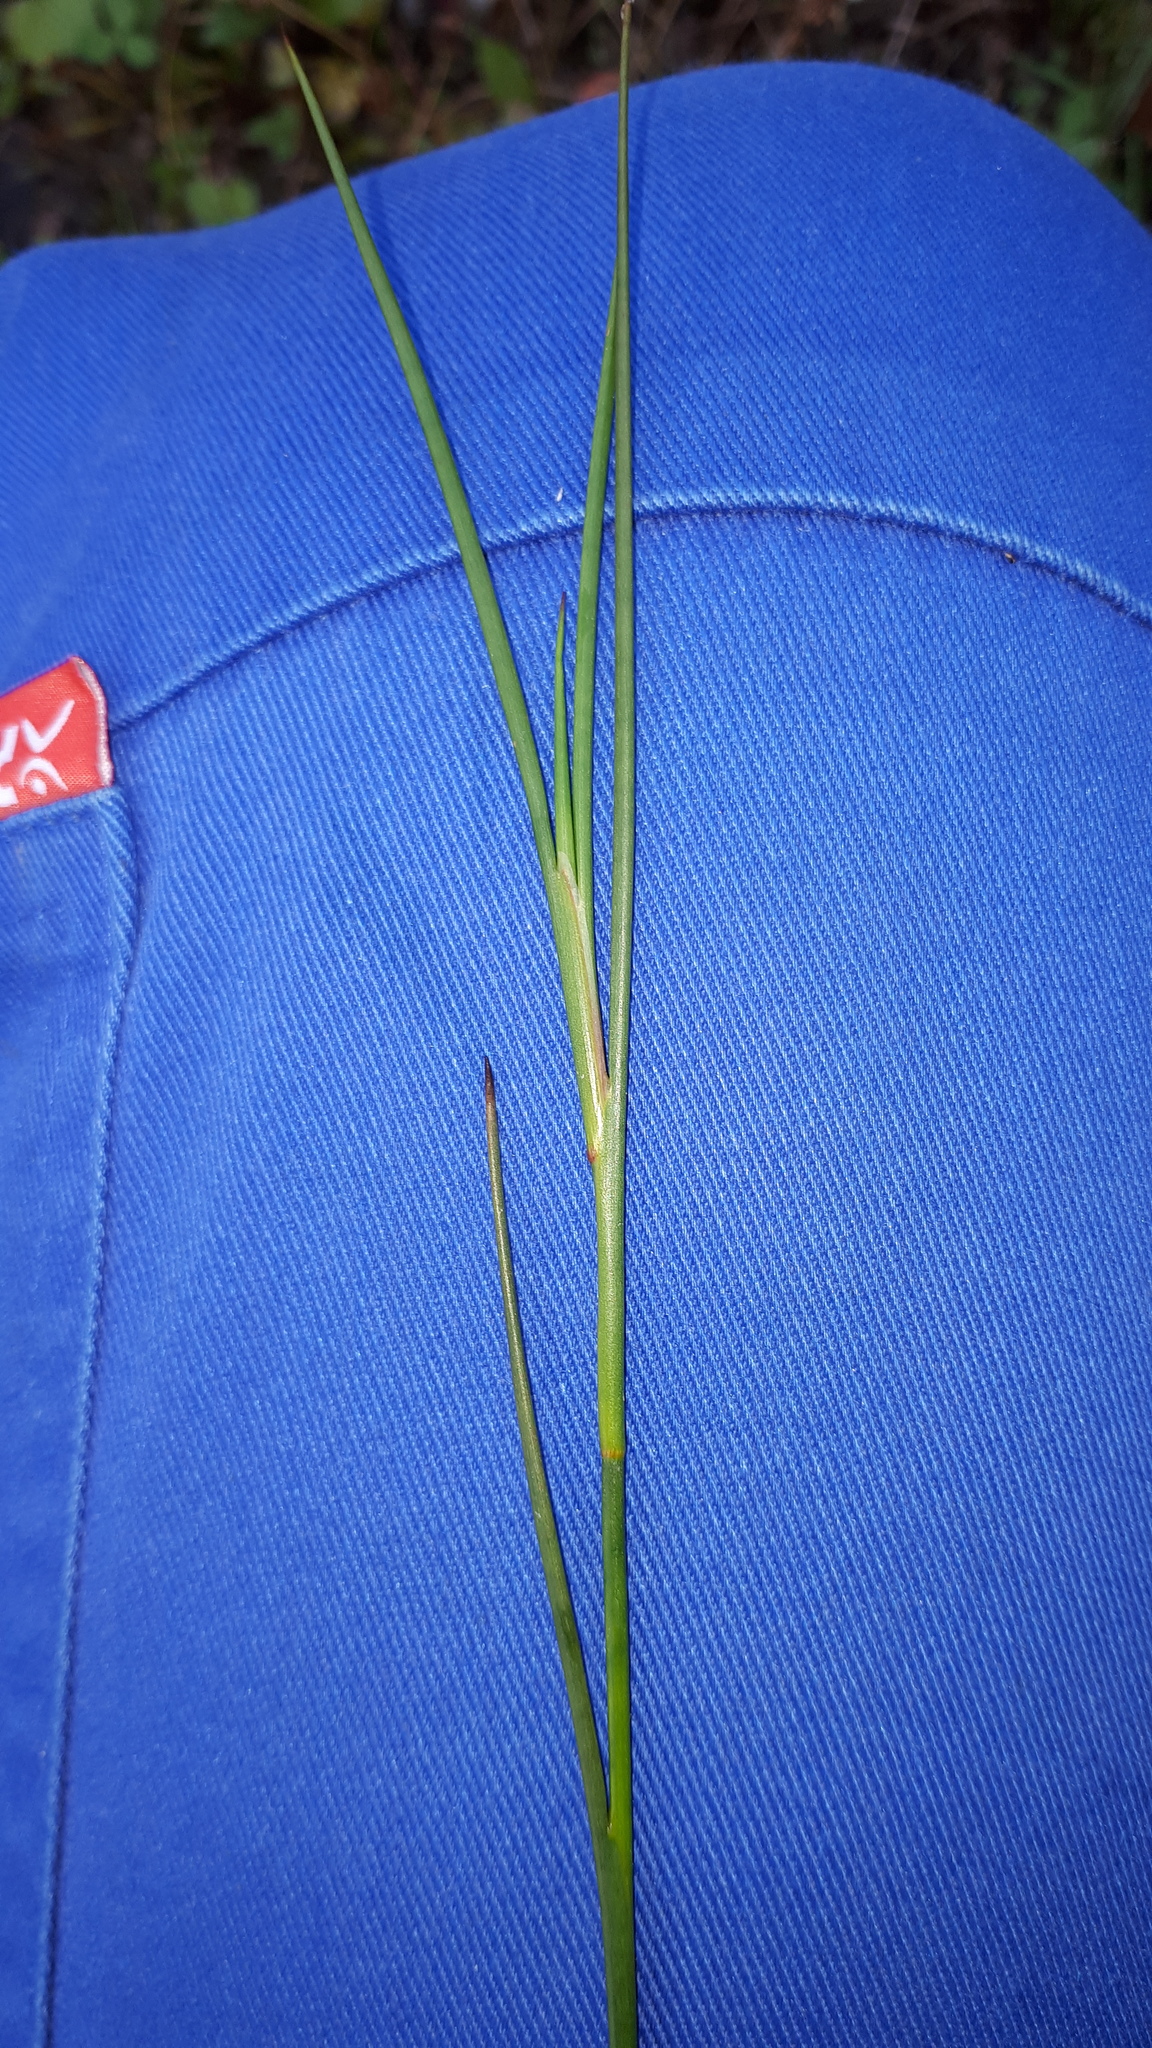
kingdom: Plantae
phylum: Tracheophyta
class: Liliopsida
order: Poales
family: Juncaceae
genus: Juncus
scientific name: Juncus articulatus
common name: Jointed rush
